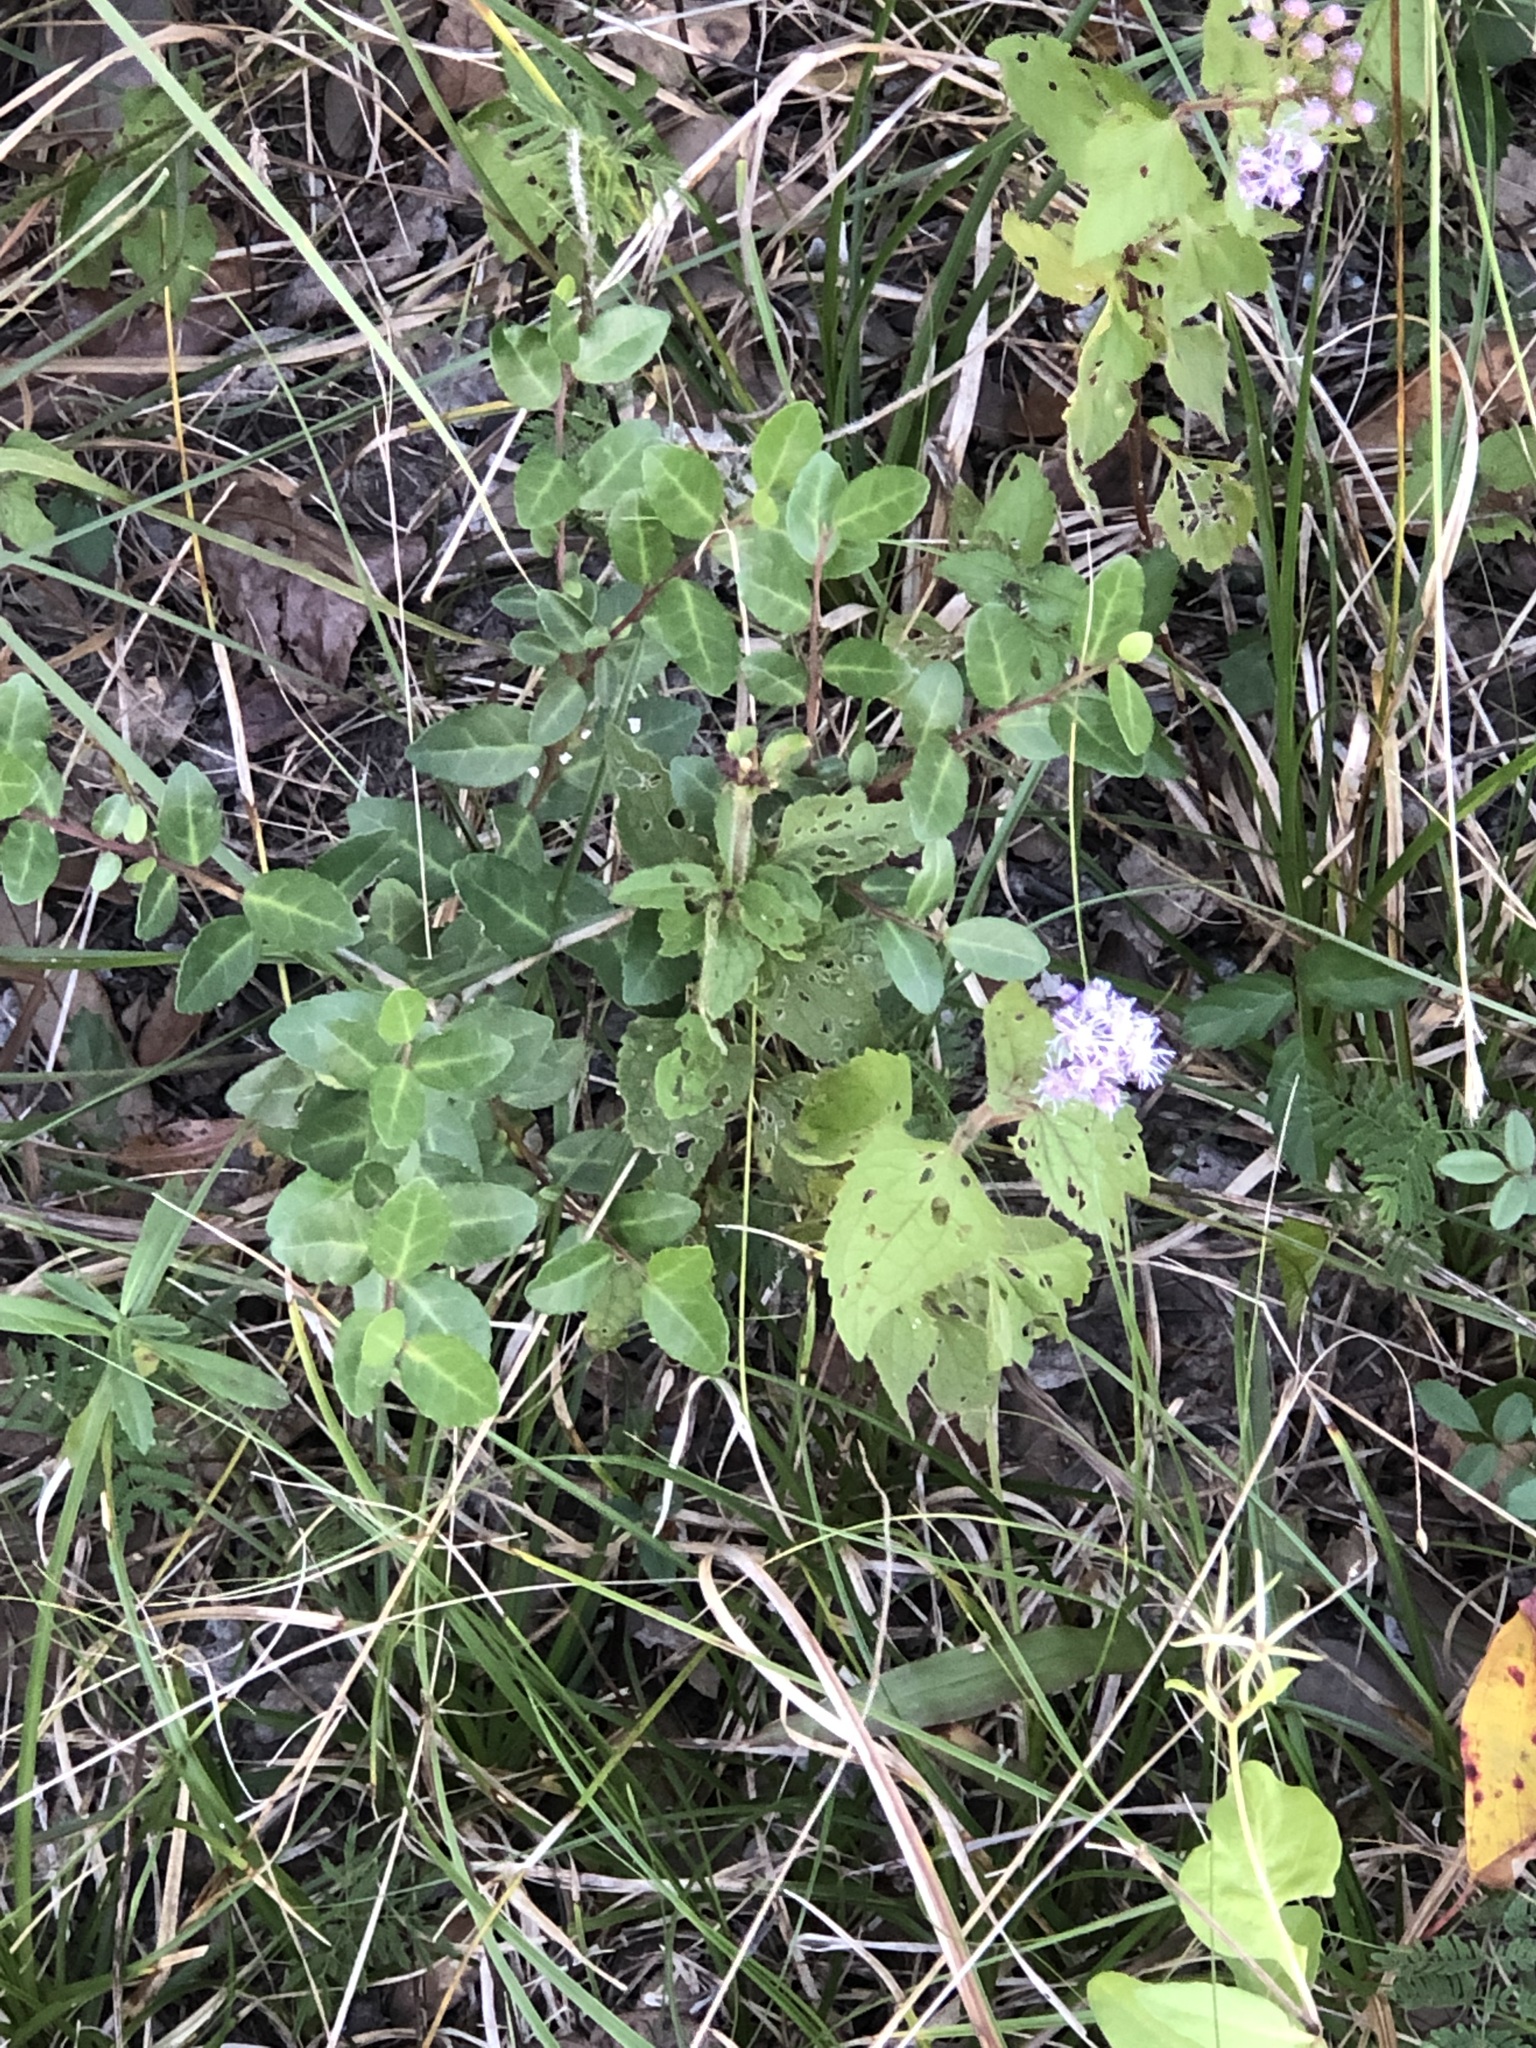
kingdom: Plantae
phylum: Tracheophyta
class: Magnoliopsida
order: Asterales
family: Asteraceae
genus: Conoclinium
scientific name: Conoclinium coelestinum
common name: Blue mistflower
